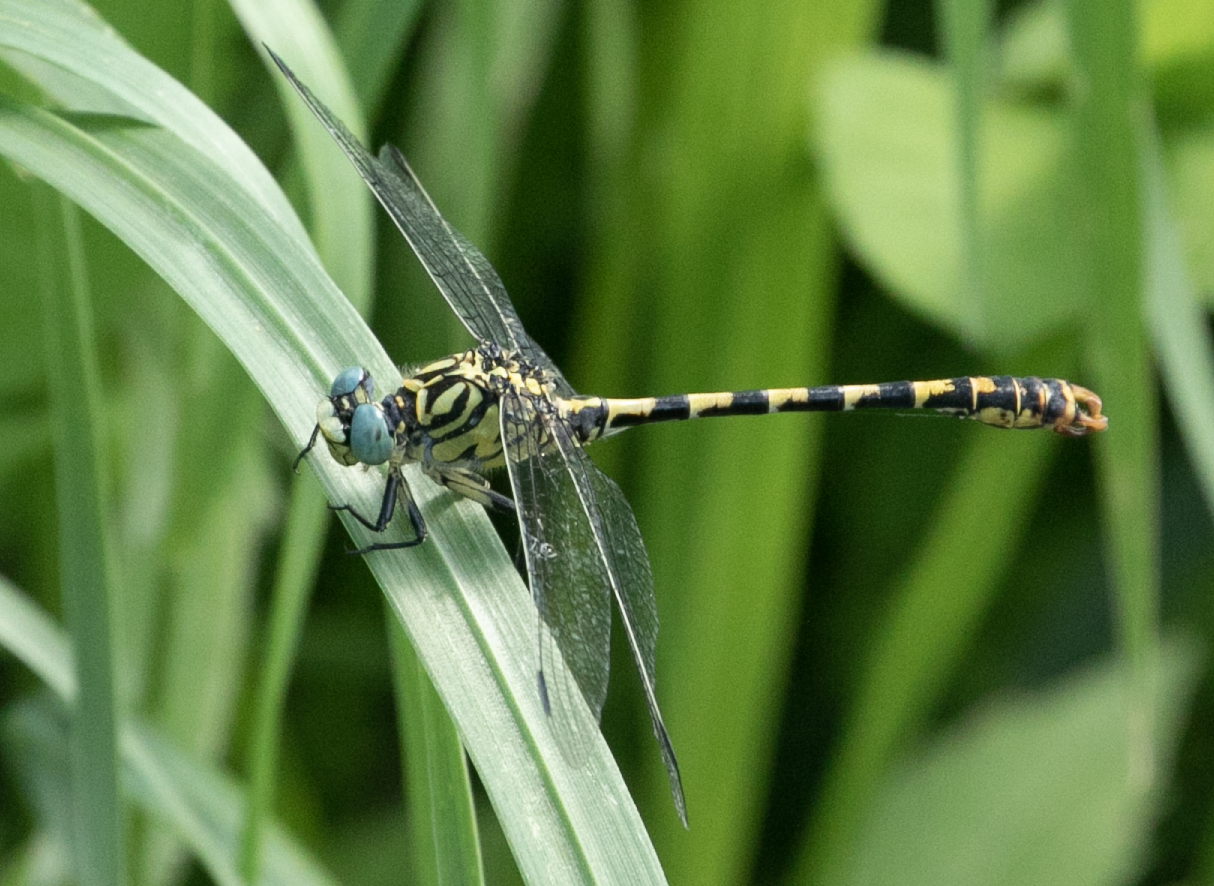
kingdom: Animalia
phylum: Arthropoda
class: Insecta
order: Odonata
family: Gomphidae
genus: Onychogomphus
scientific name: Onychogomphus forcipatus
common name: Small pincertail
